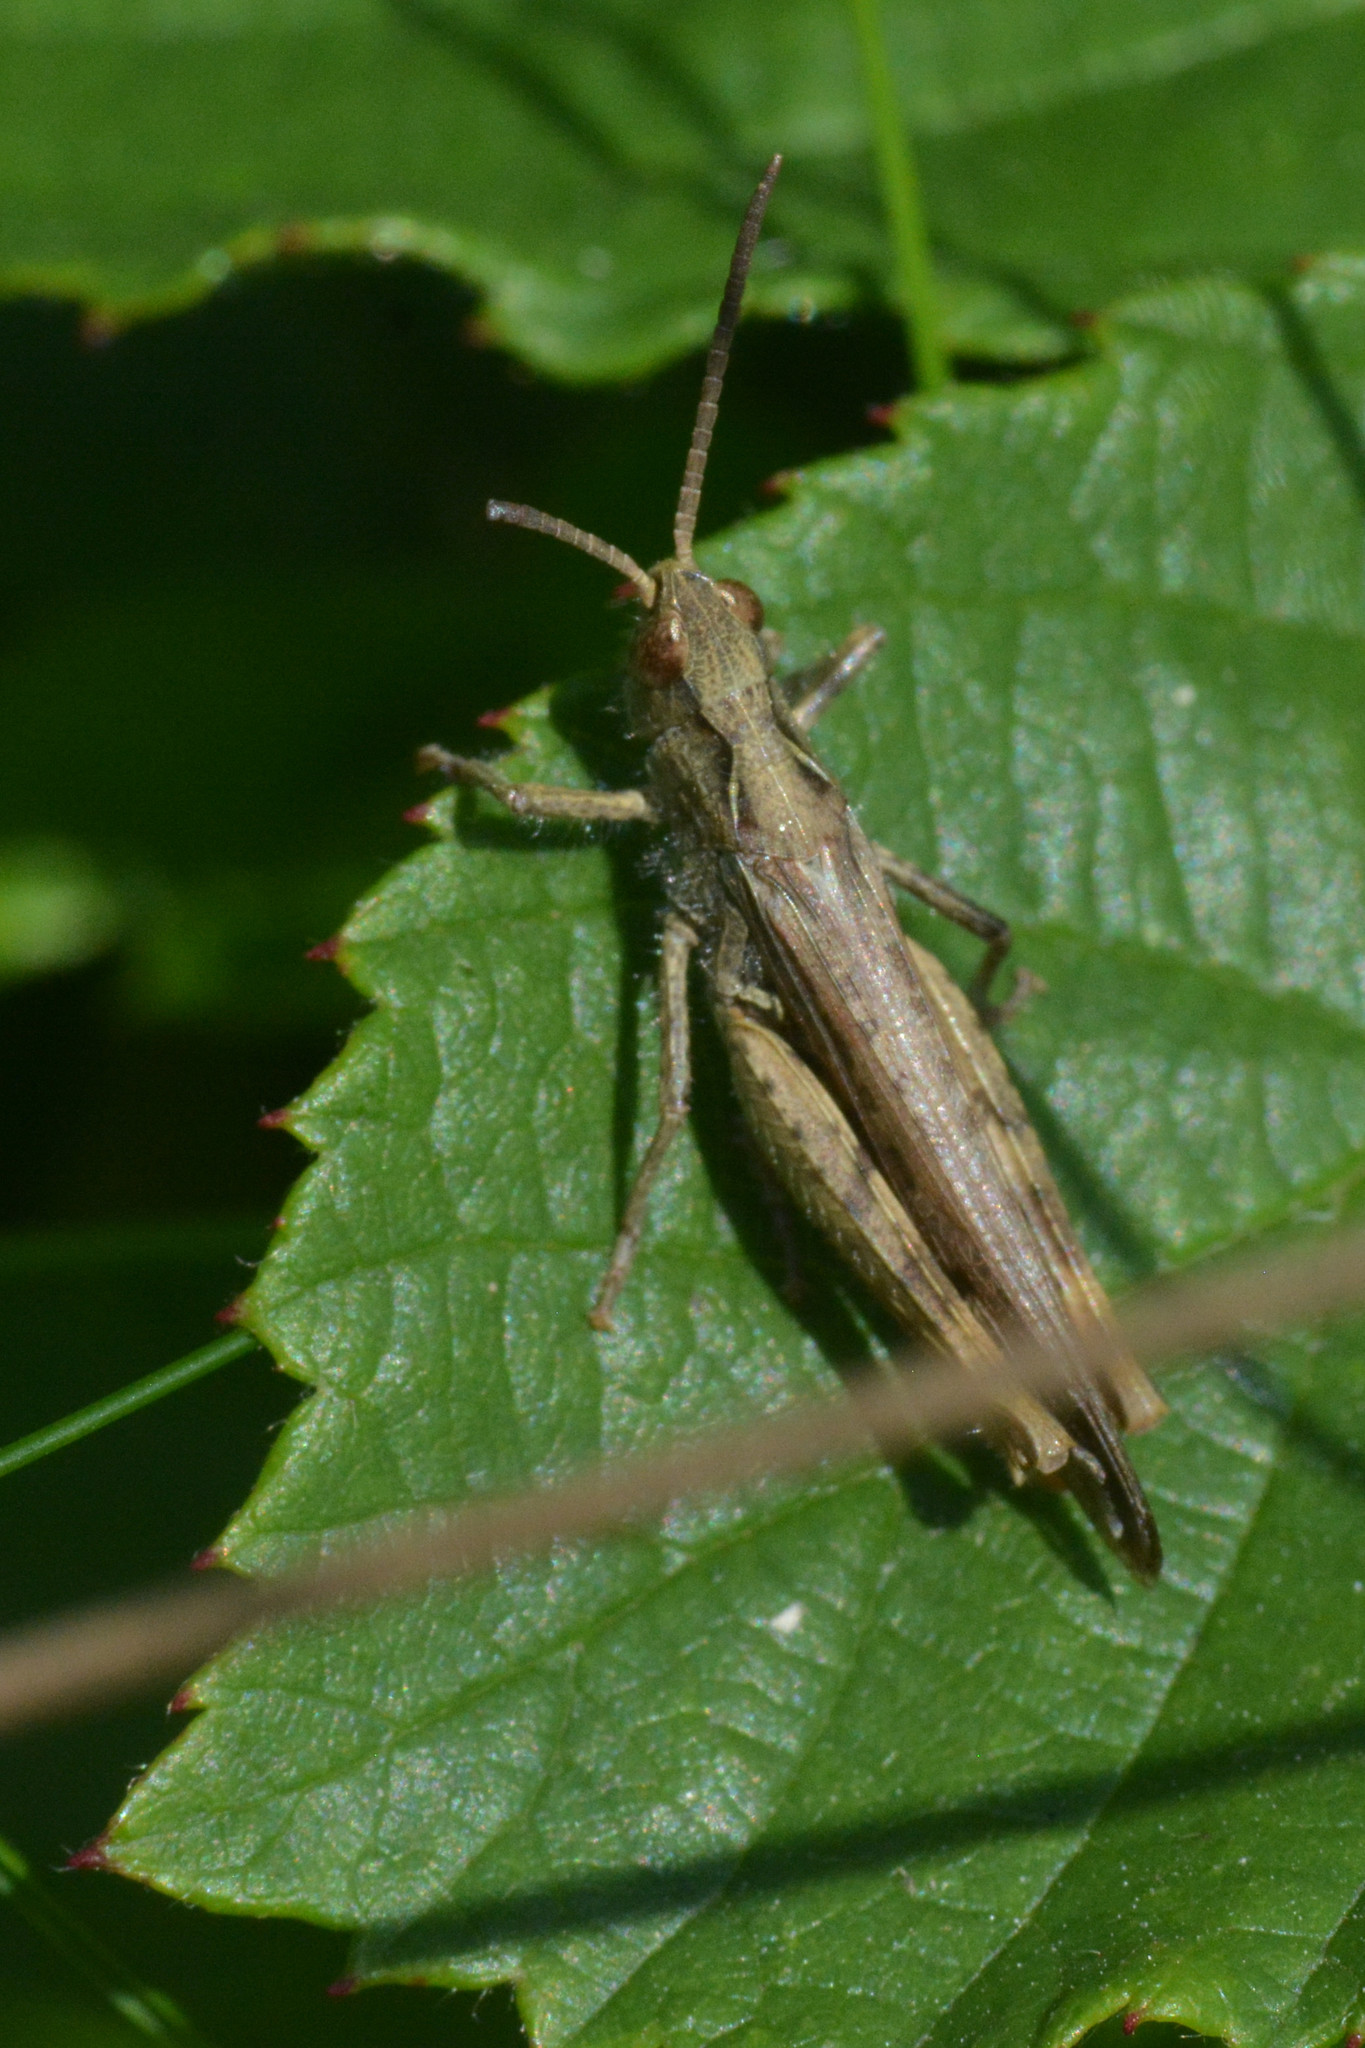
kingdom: Animalia
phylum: Arthropoda
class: Insecta
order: Orthoptera
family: Acrididae
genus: Chorthippus
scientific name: Chorthippus brunneus
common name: Field grasshopper
